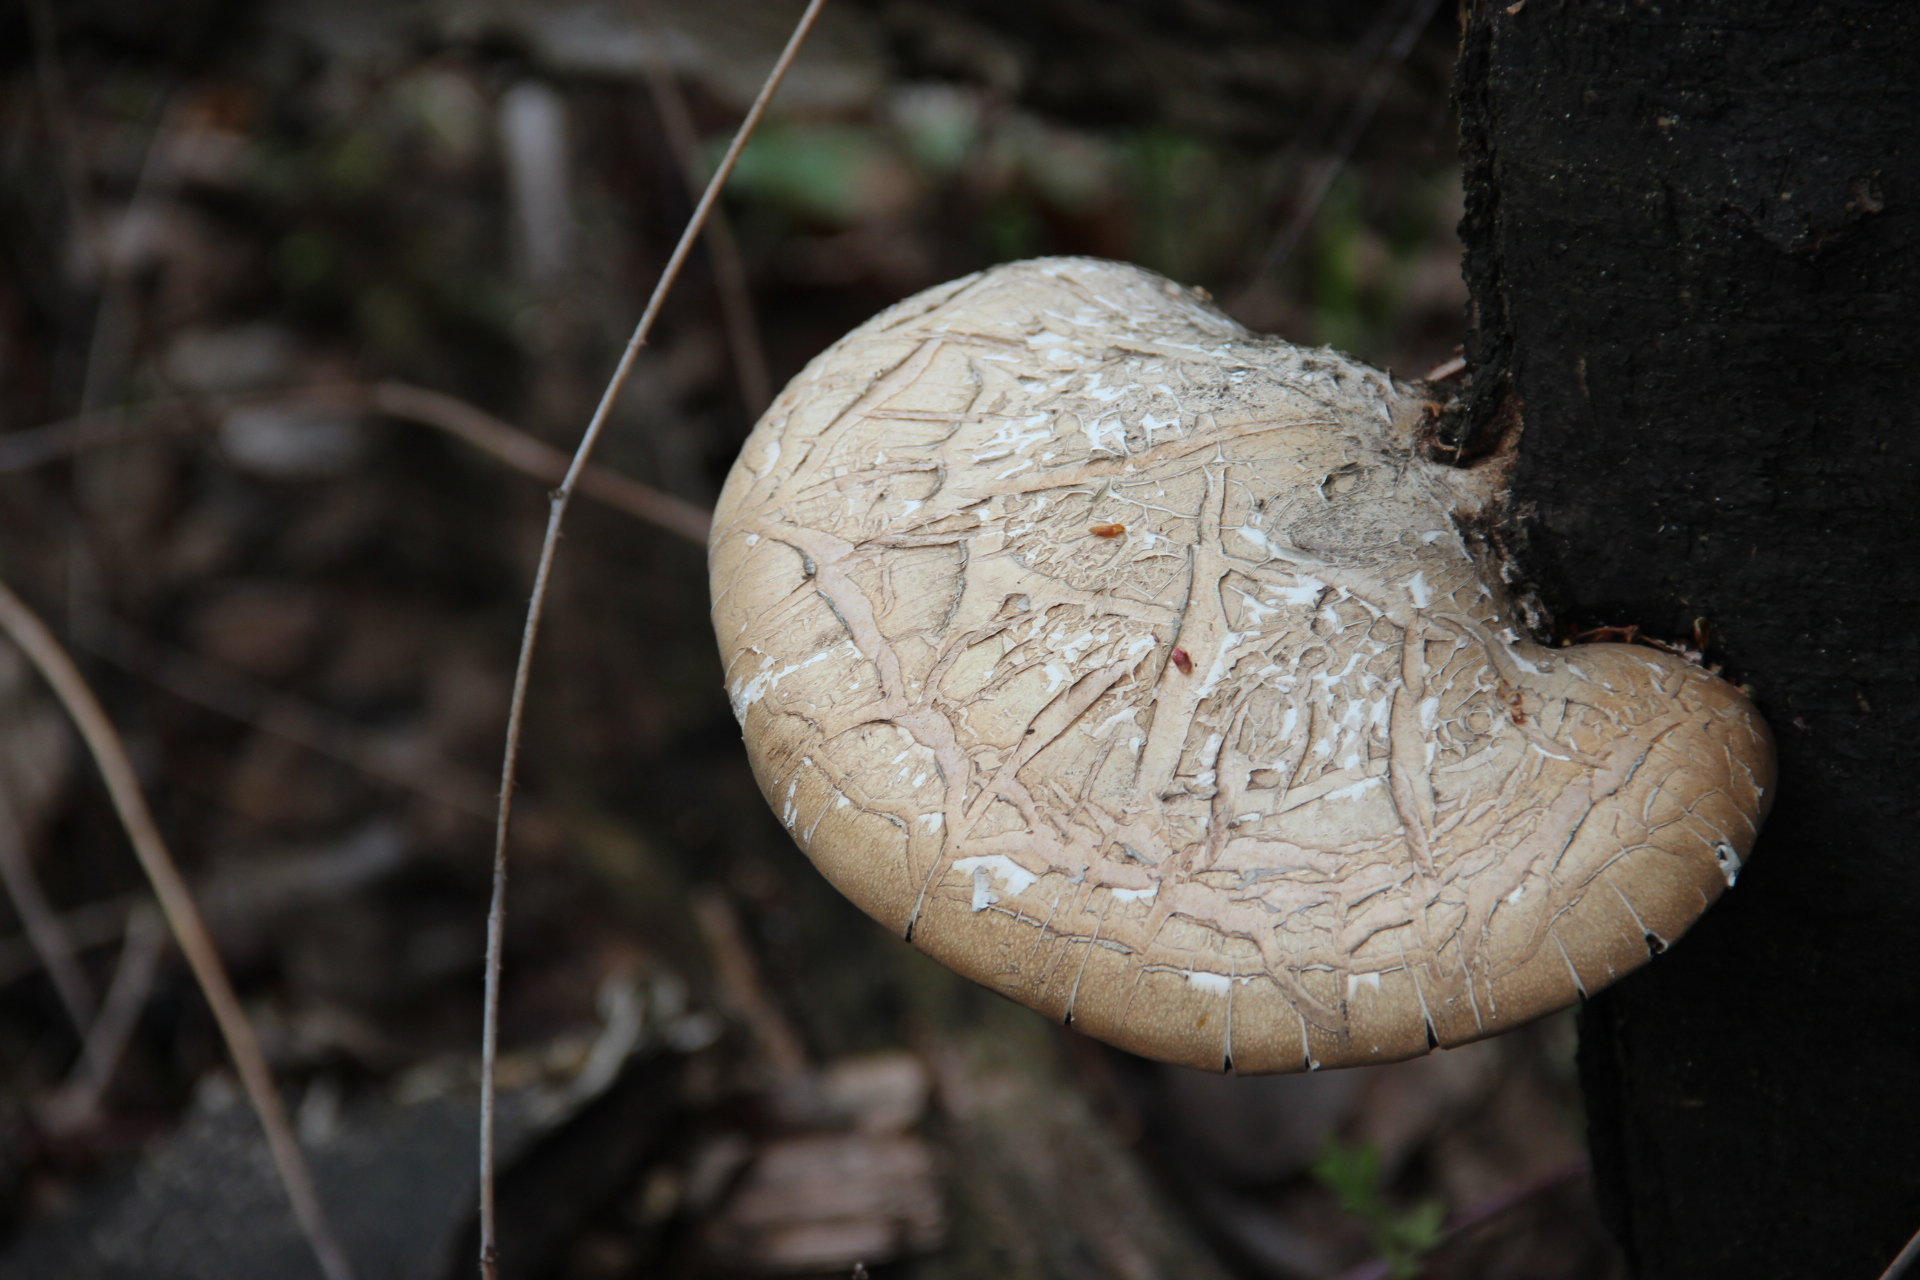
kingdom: Fungi
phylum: Basidiomycota
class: Agaricomycetes
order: Polyporales
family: Fomitopsidaceae
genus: Fomitopsis
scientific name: Fomitopsis betulina
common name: Birch polypore
